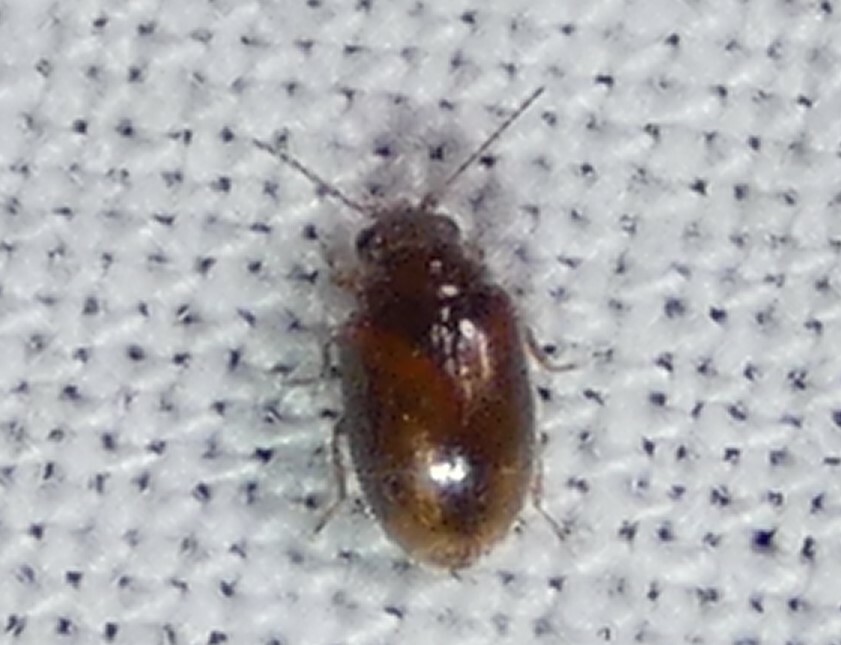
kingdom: Animalia
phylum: Arthropoda
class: Insecta
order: Coleoptera
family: Scirtidae
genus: Contacyphon
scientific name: Contacyphon
